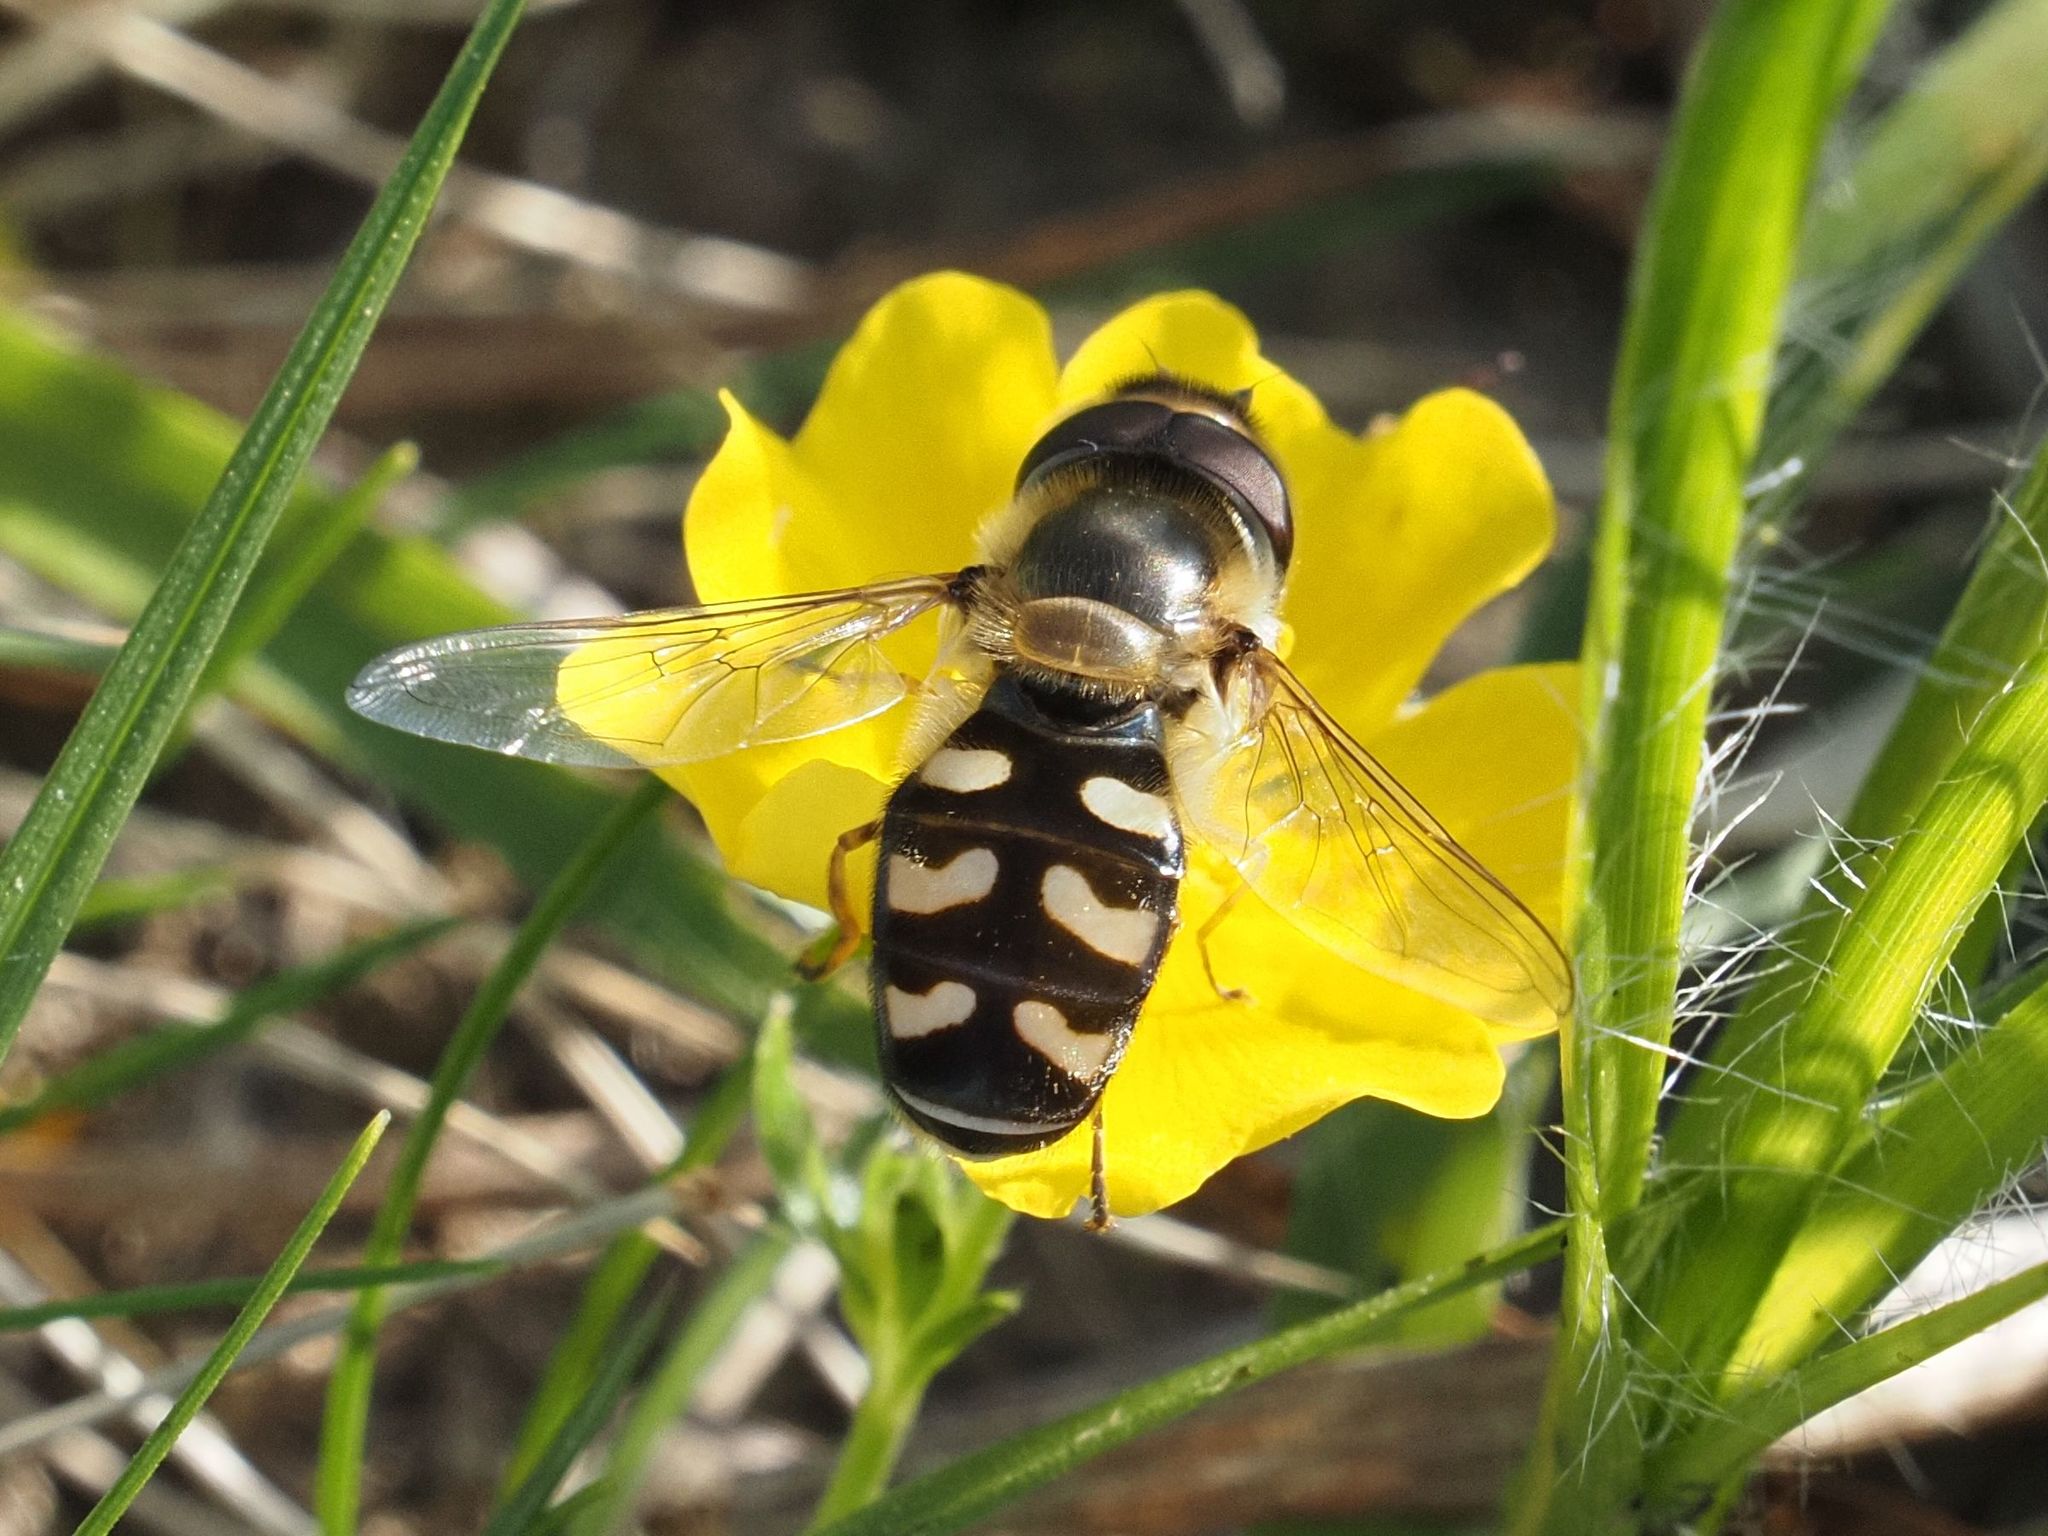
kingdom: Animalia
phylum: Arthropoda
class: Insecta
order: Diptera
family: Syrphidae
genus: Scaeva
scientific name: Scaeva pyrastri
